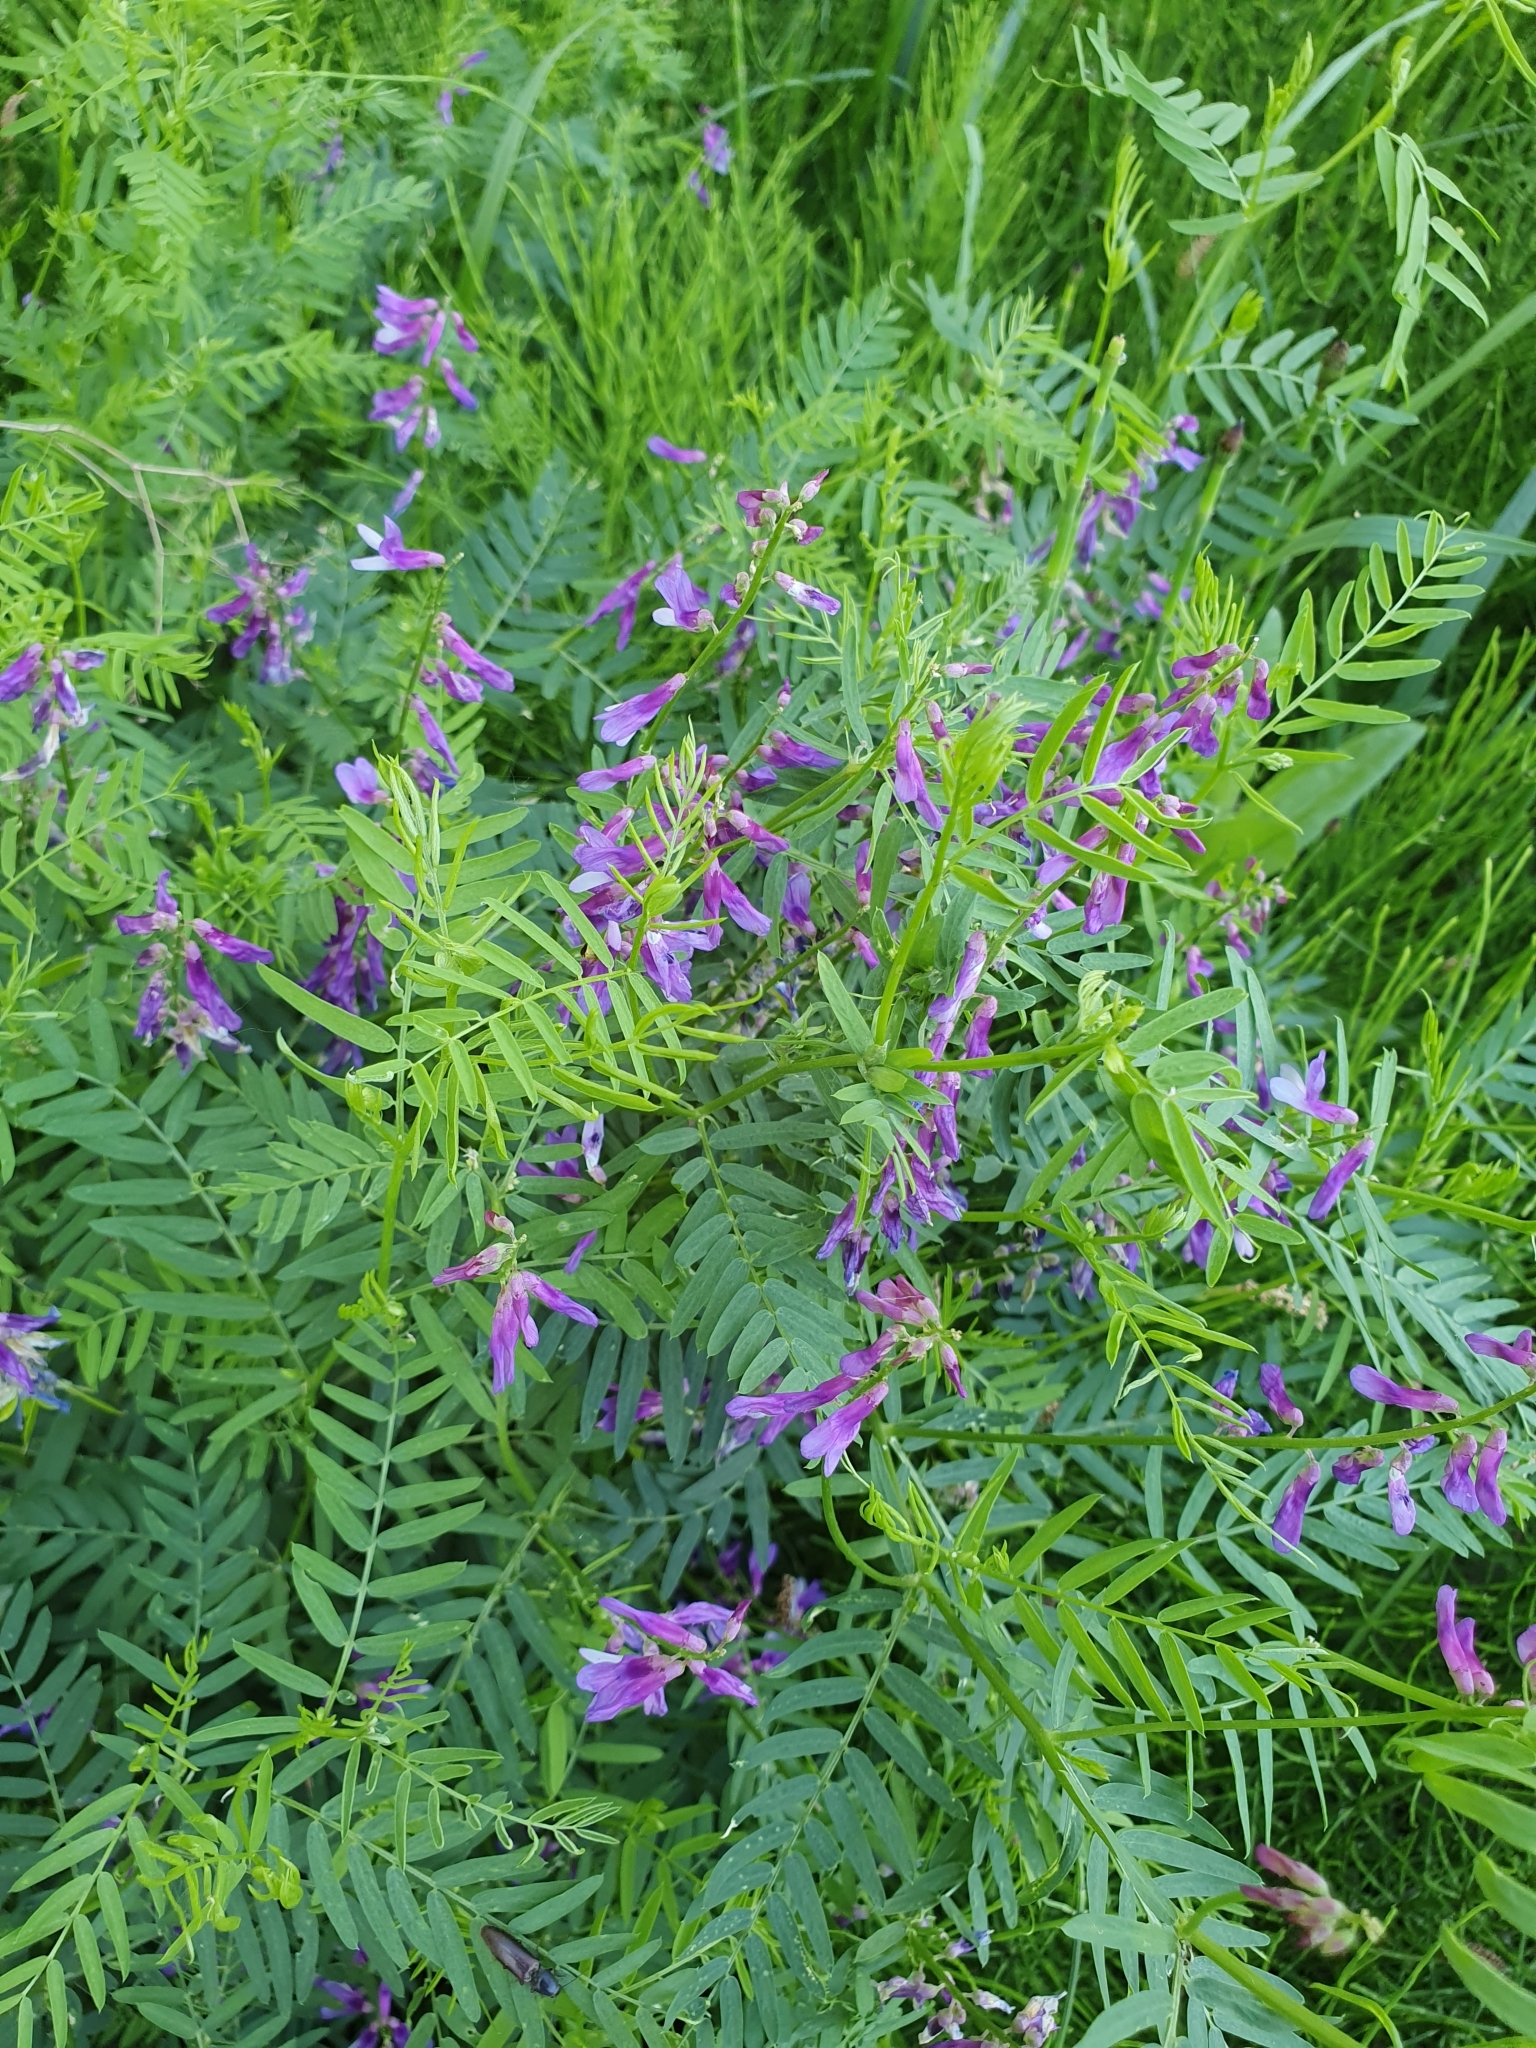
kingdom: Plantae
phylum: Tracheophyta
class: Magnoliopsida
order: Fabales
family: Fabaceae
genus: Vicia
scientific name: Vicia tenuifolia
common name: Fine-leaved vetch
